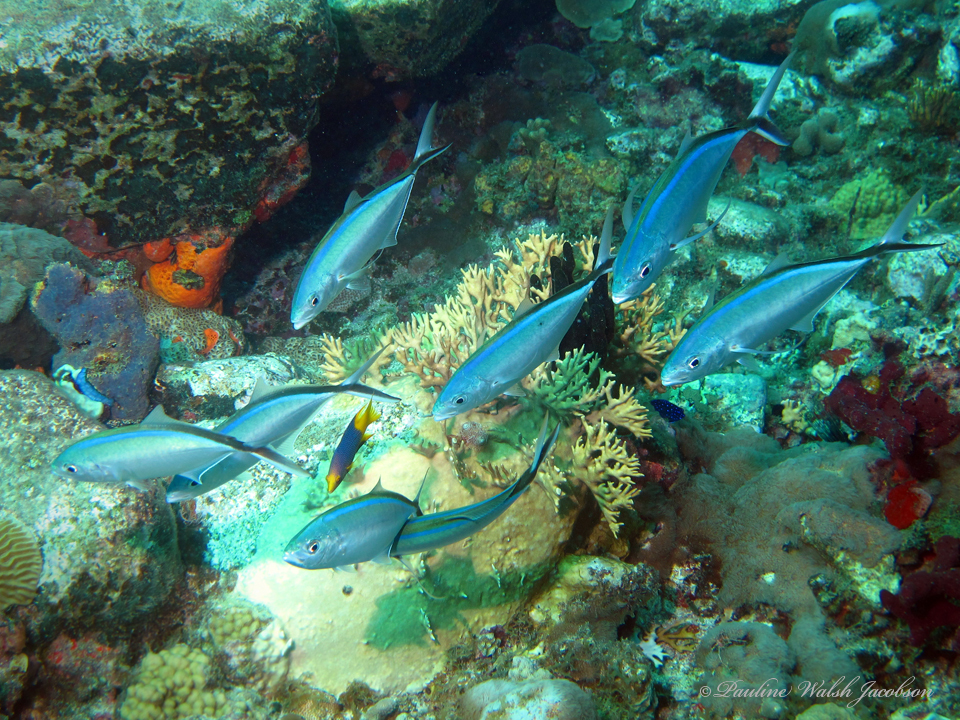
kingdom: Animalia
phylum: Chordata
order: Perciformes
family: Carangidae
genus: Caranx
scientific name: Caranx ruber
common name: Bar jack
